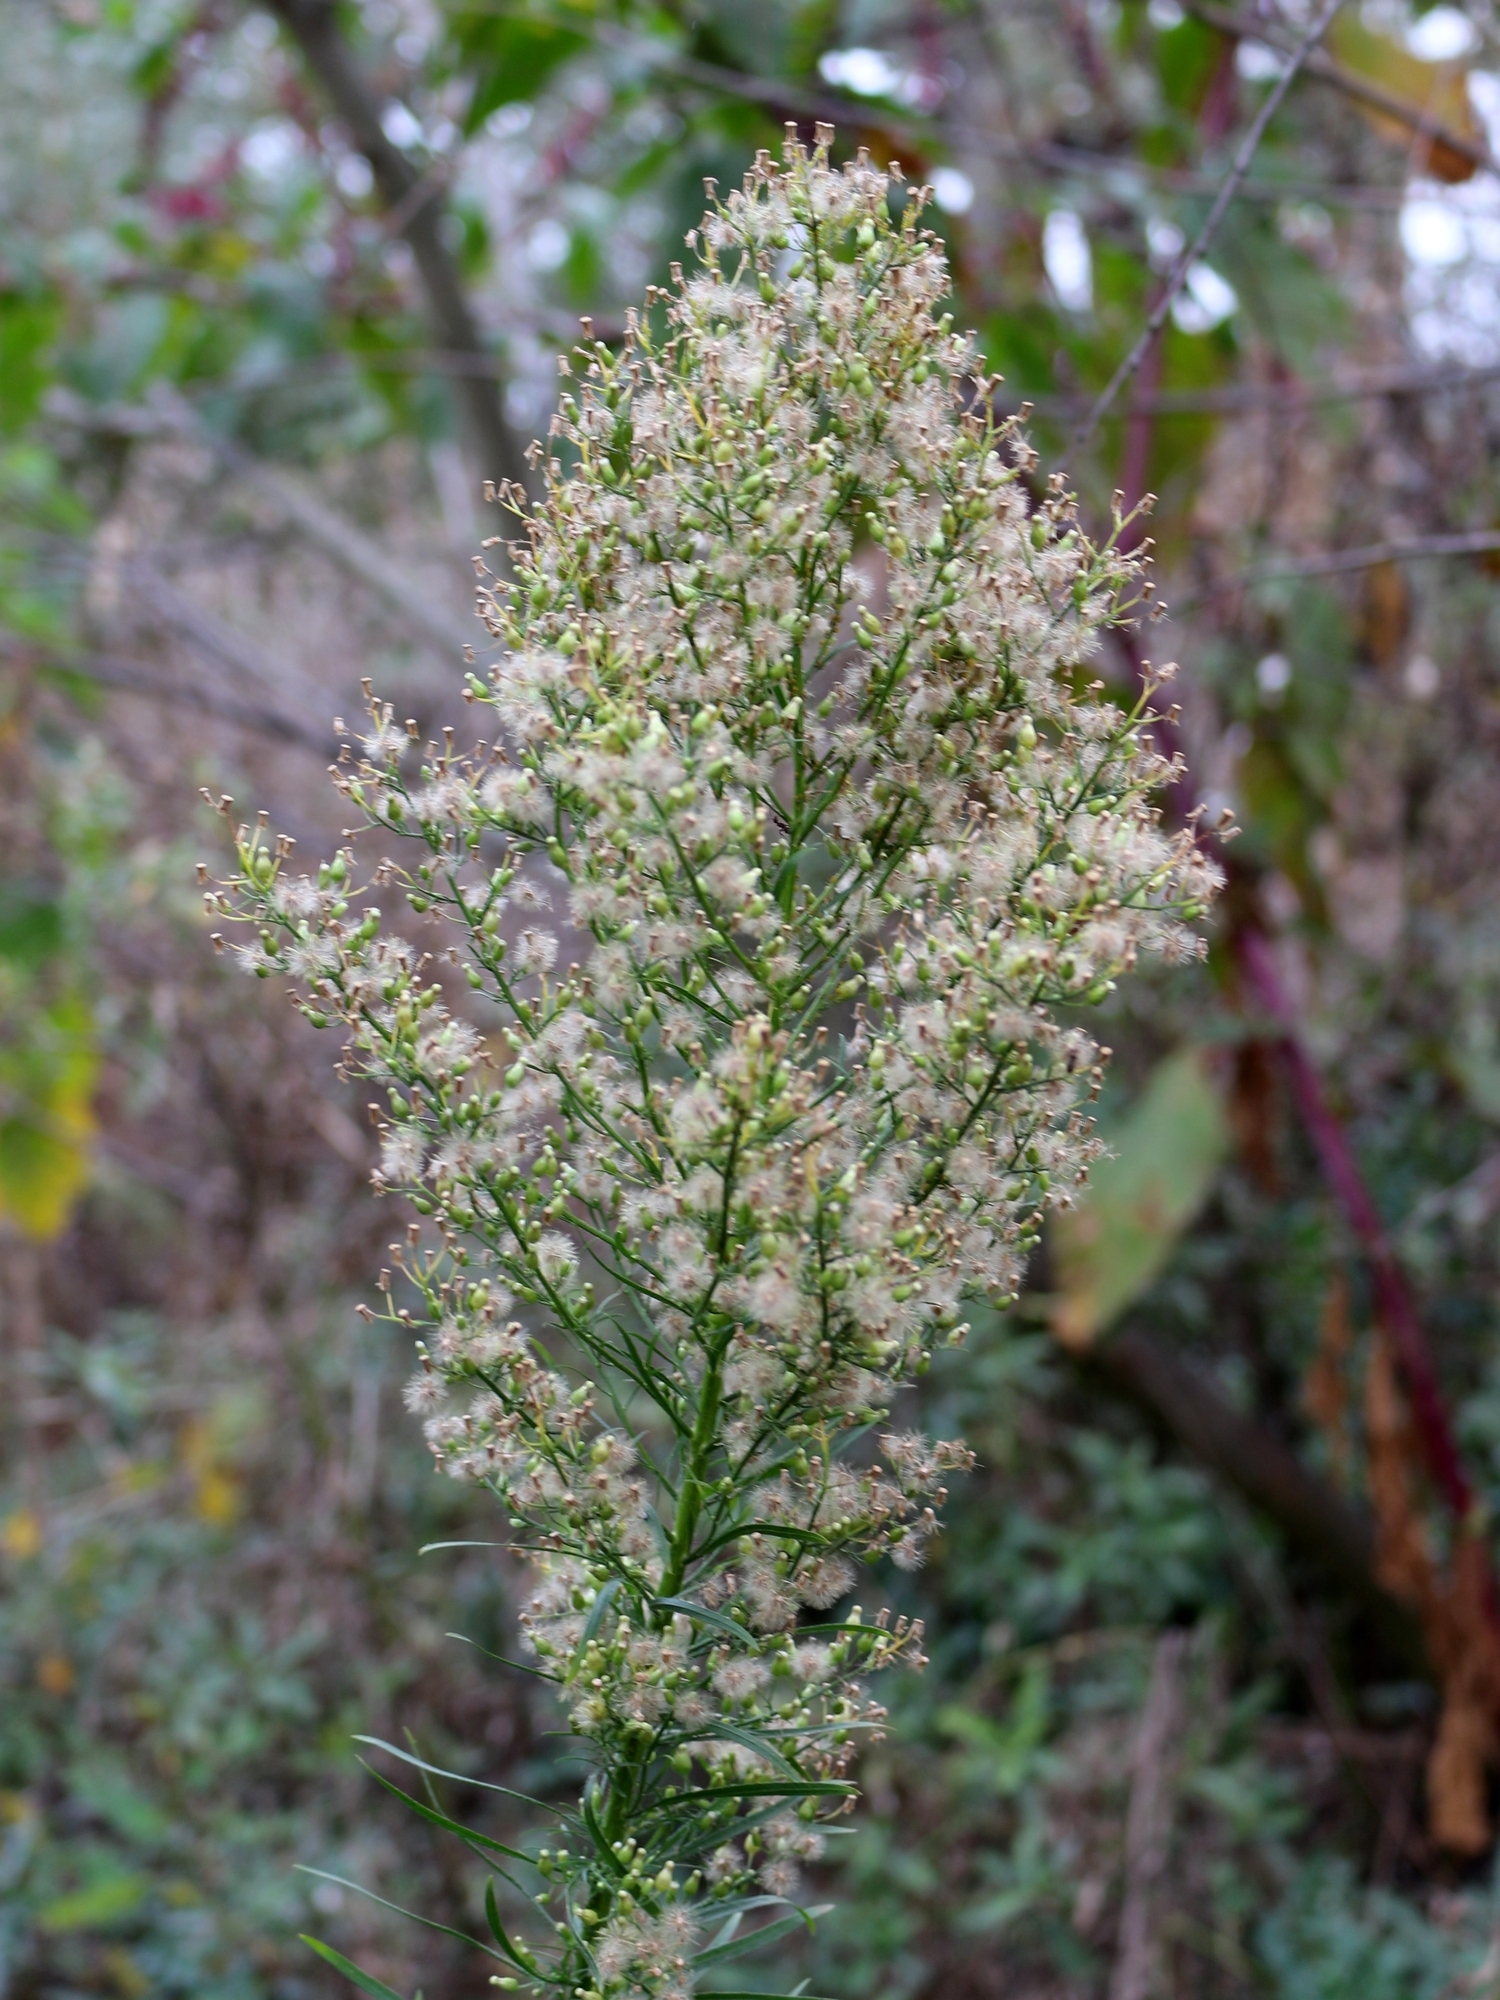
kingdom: Plantae
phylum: Tracheophyta
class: Magnoliopsida
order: Asterales
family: Asteraceae
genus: Erigeron
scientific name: Erigeron canadensis
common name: Canadian fleabane
